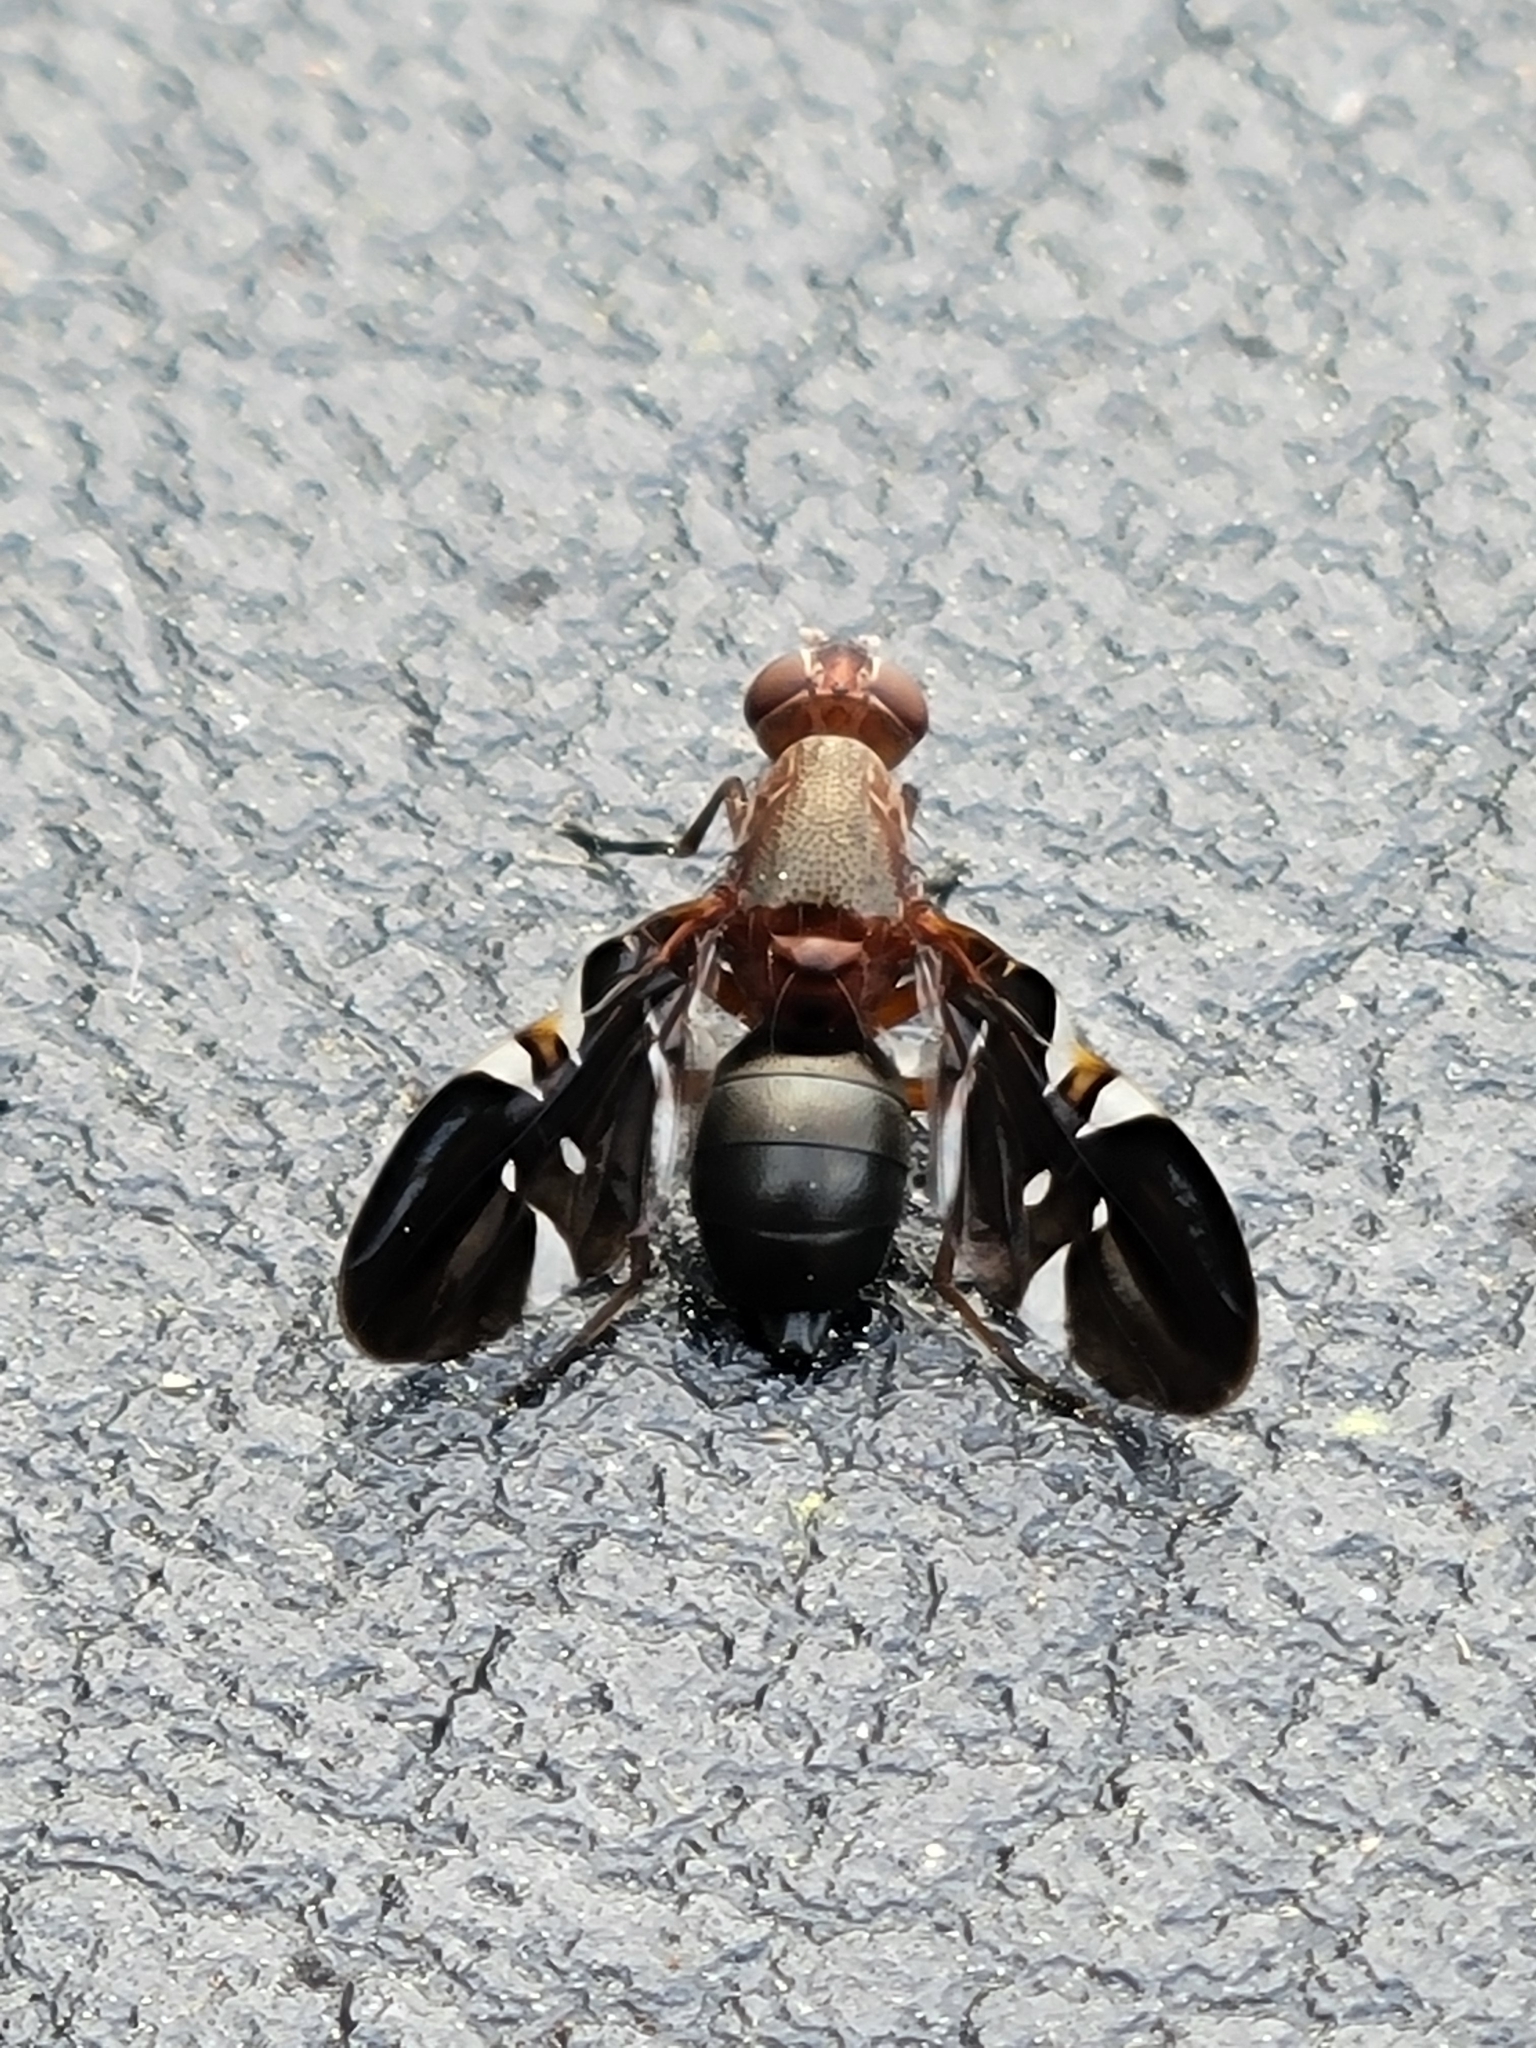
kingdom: Animalia
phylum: Arthropoda
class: Insecta
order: Diptera
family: Ulidiidae
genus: Delphinia
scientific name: Delphinia picta
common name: Common picture-winged fly
